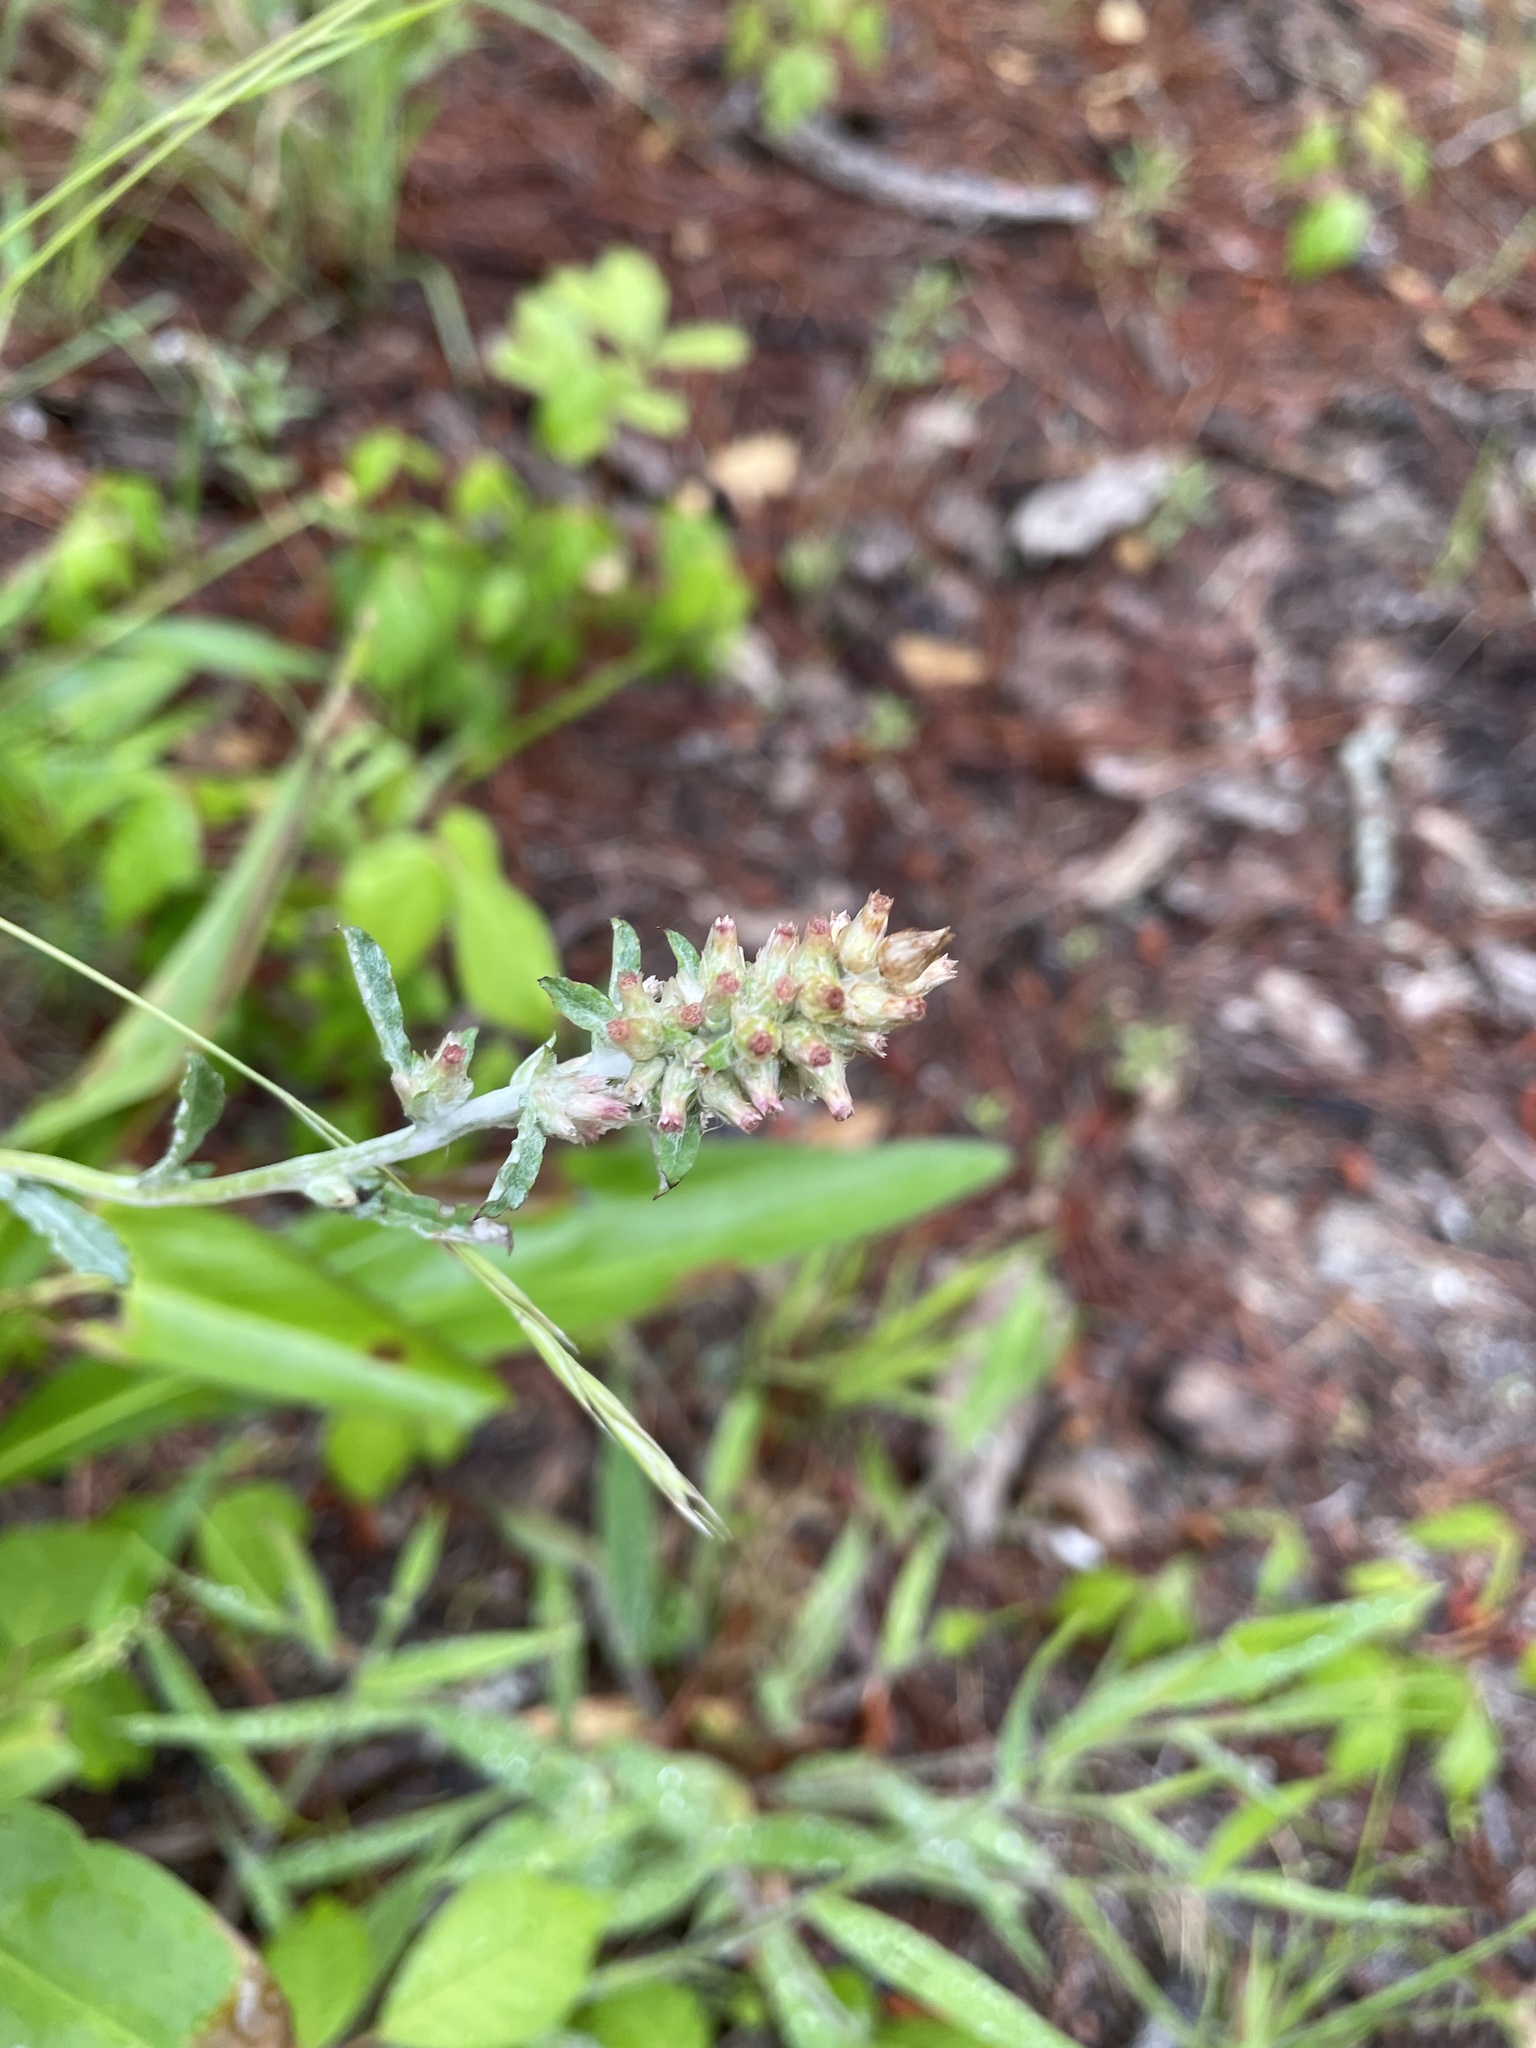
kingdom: Plantae
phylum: Tracheophyta
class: Magnoliopsida
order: Asterales
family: Asteraceae
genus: Gamochaeta
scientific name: Gamochaeta purpurea
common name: Purple cudweed
